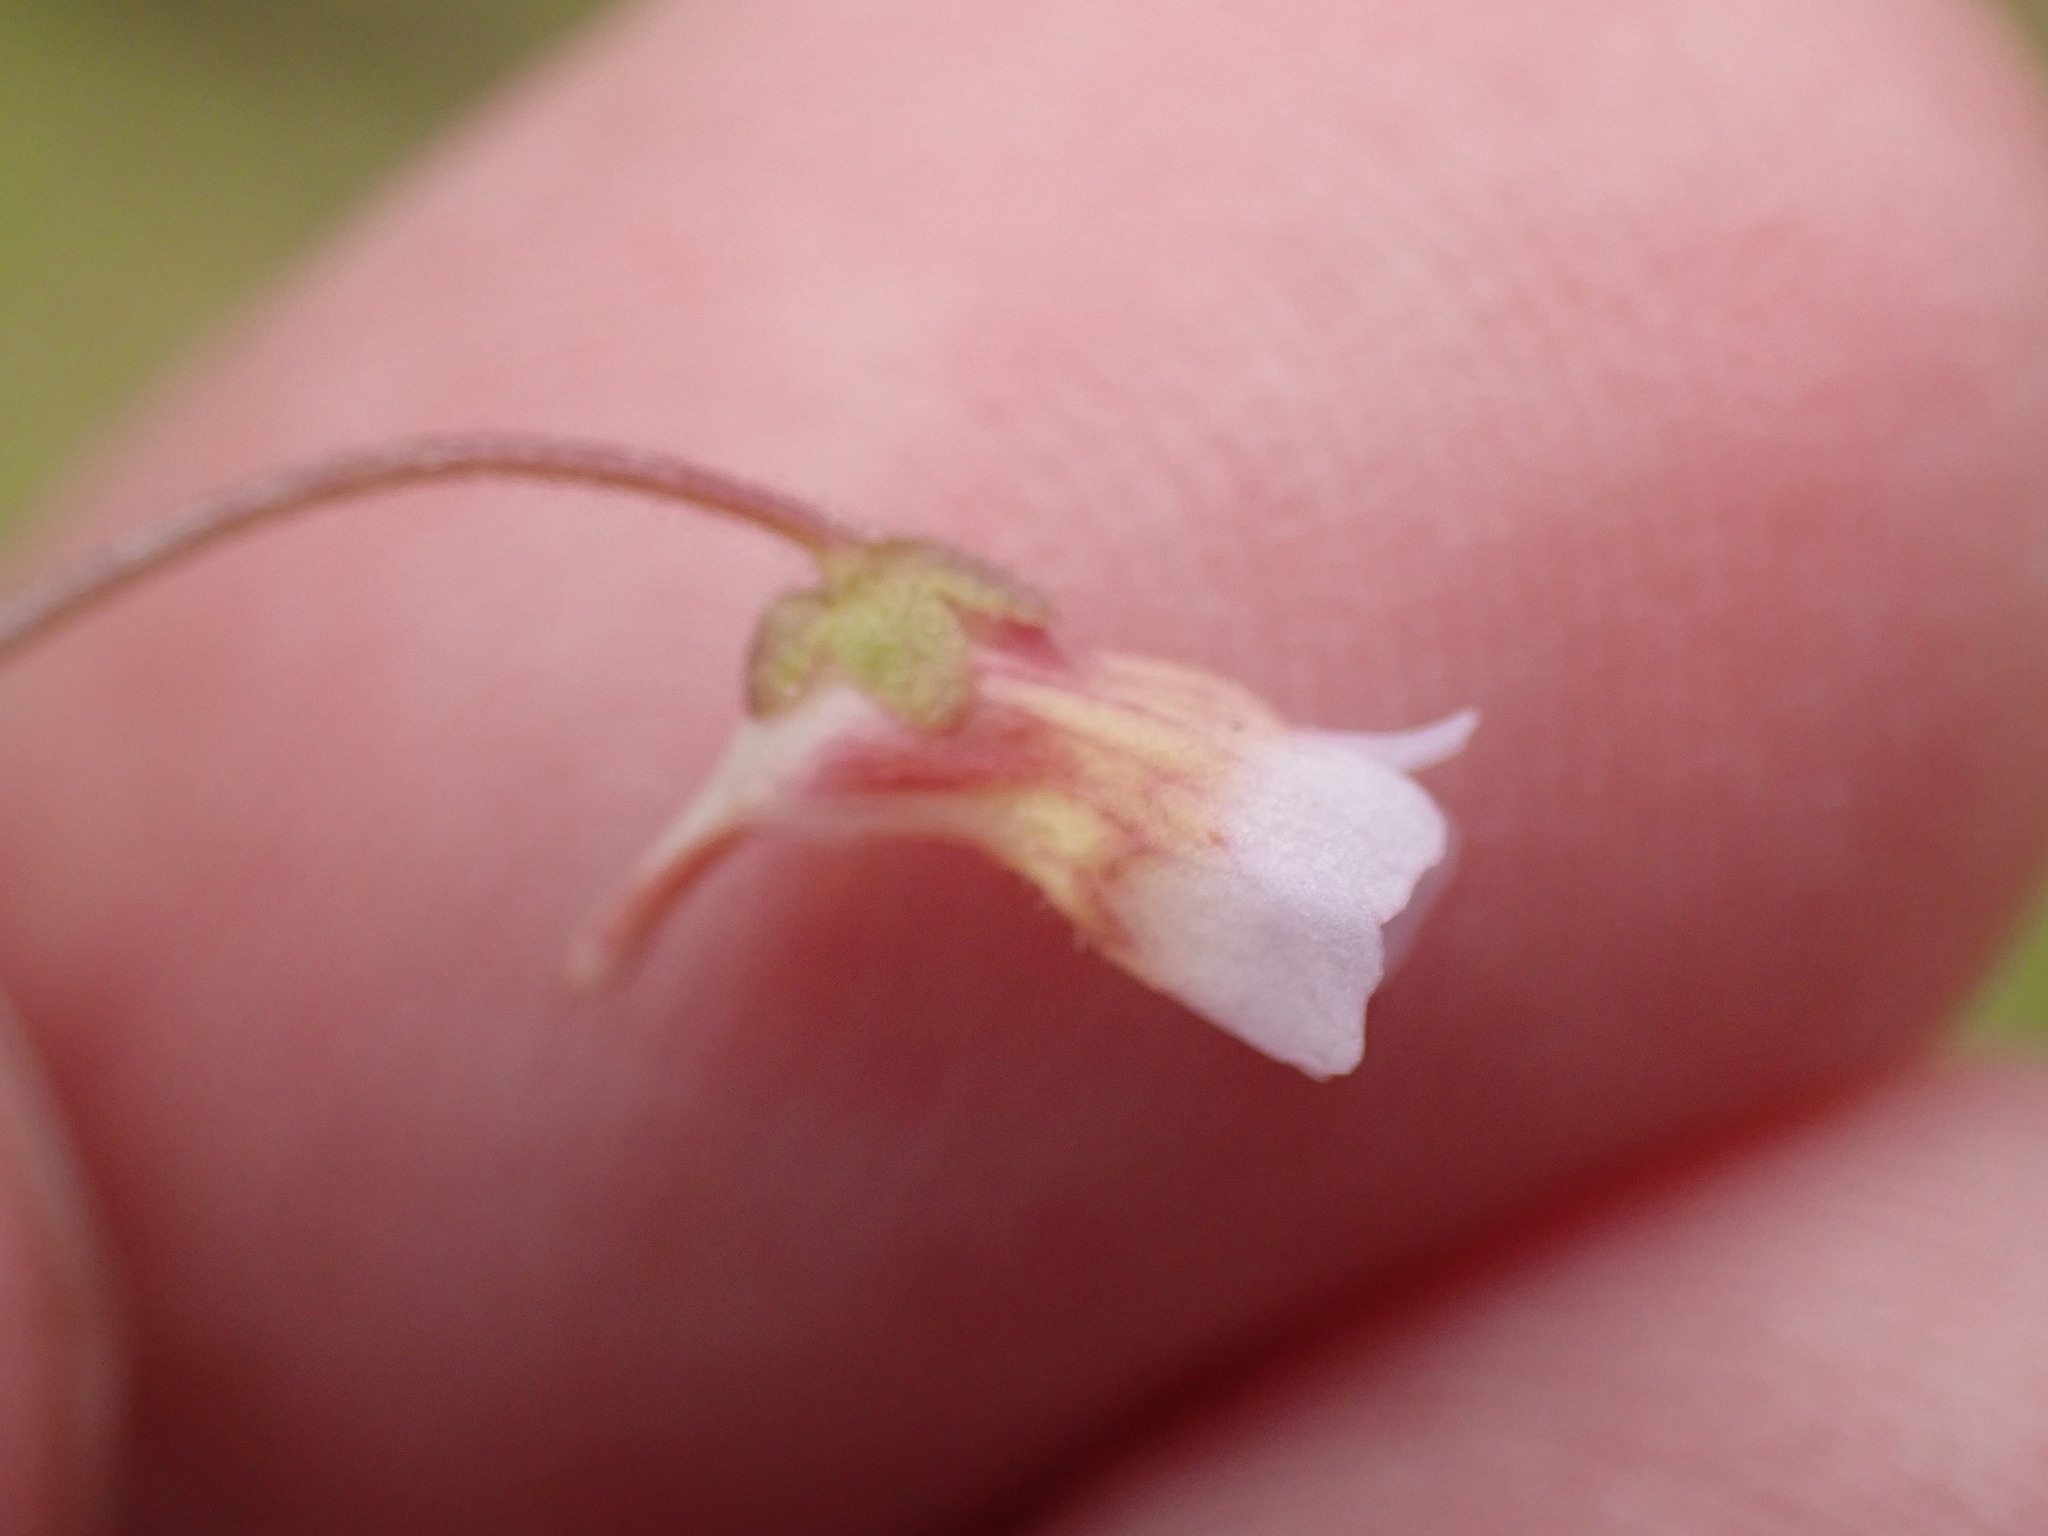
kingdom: Plantae
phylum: Tracheophyta
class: Magnoliopsida
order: Lamiales
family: Lentibulariaceae
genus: Pinguicula
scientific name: Pinguicula lusitanica
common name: Pale butterwort
